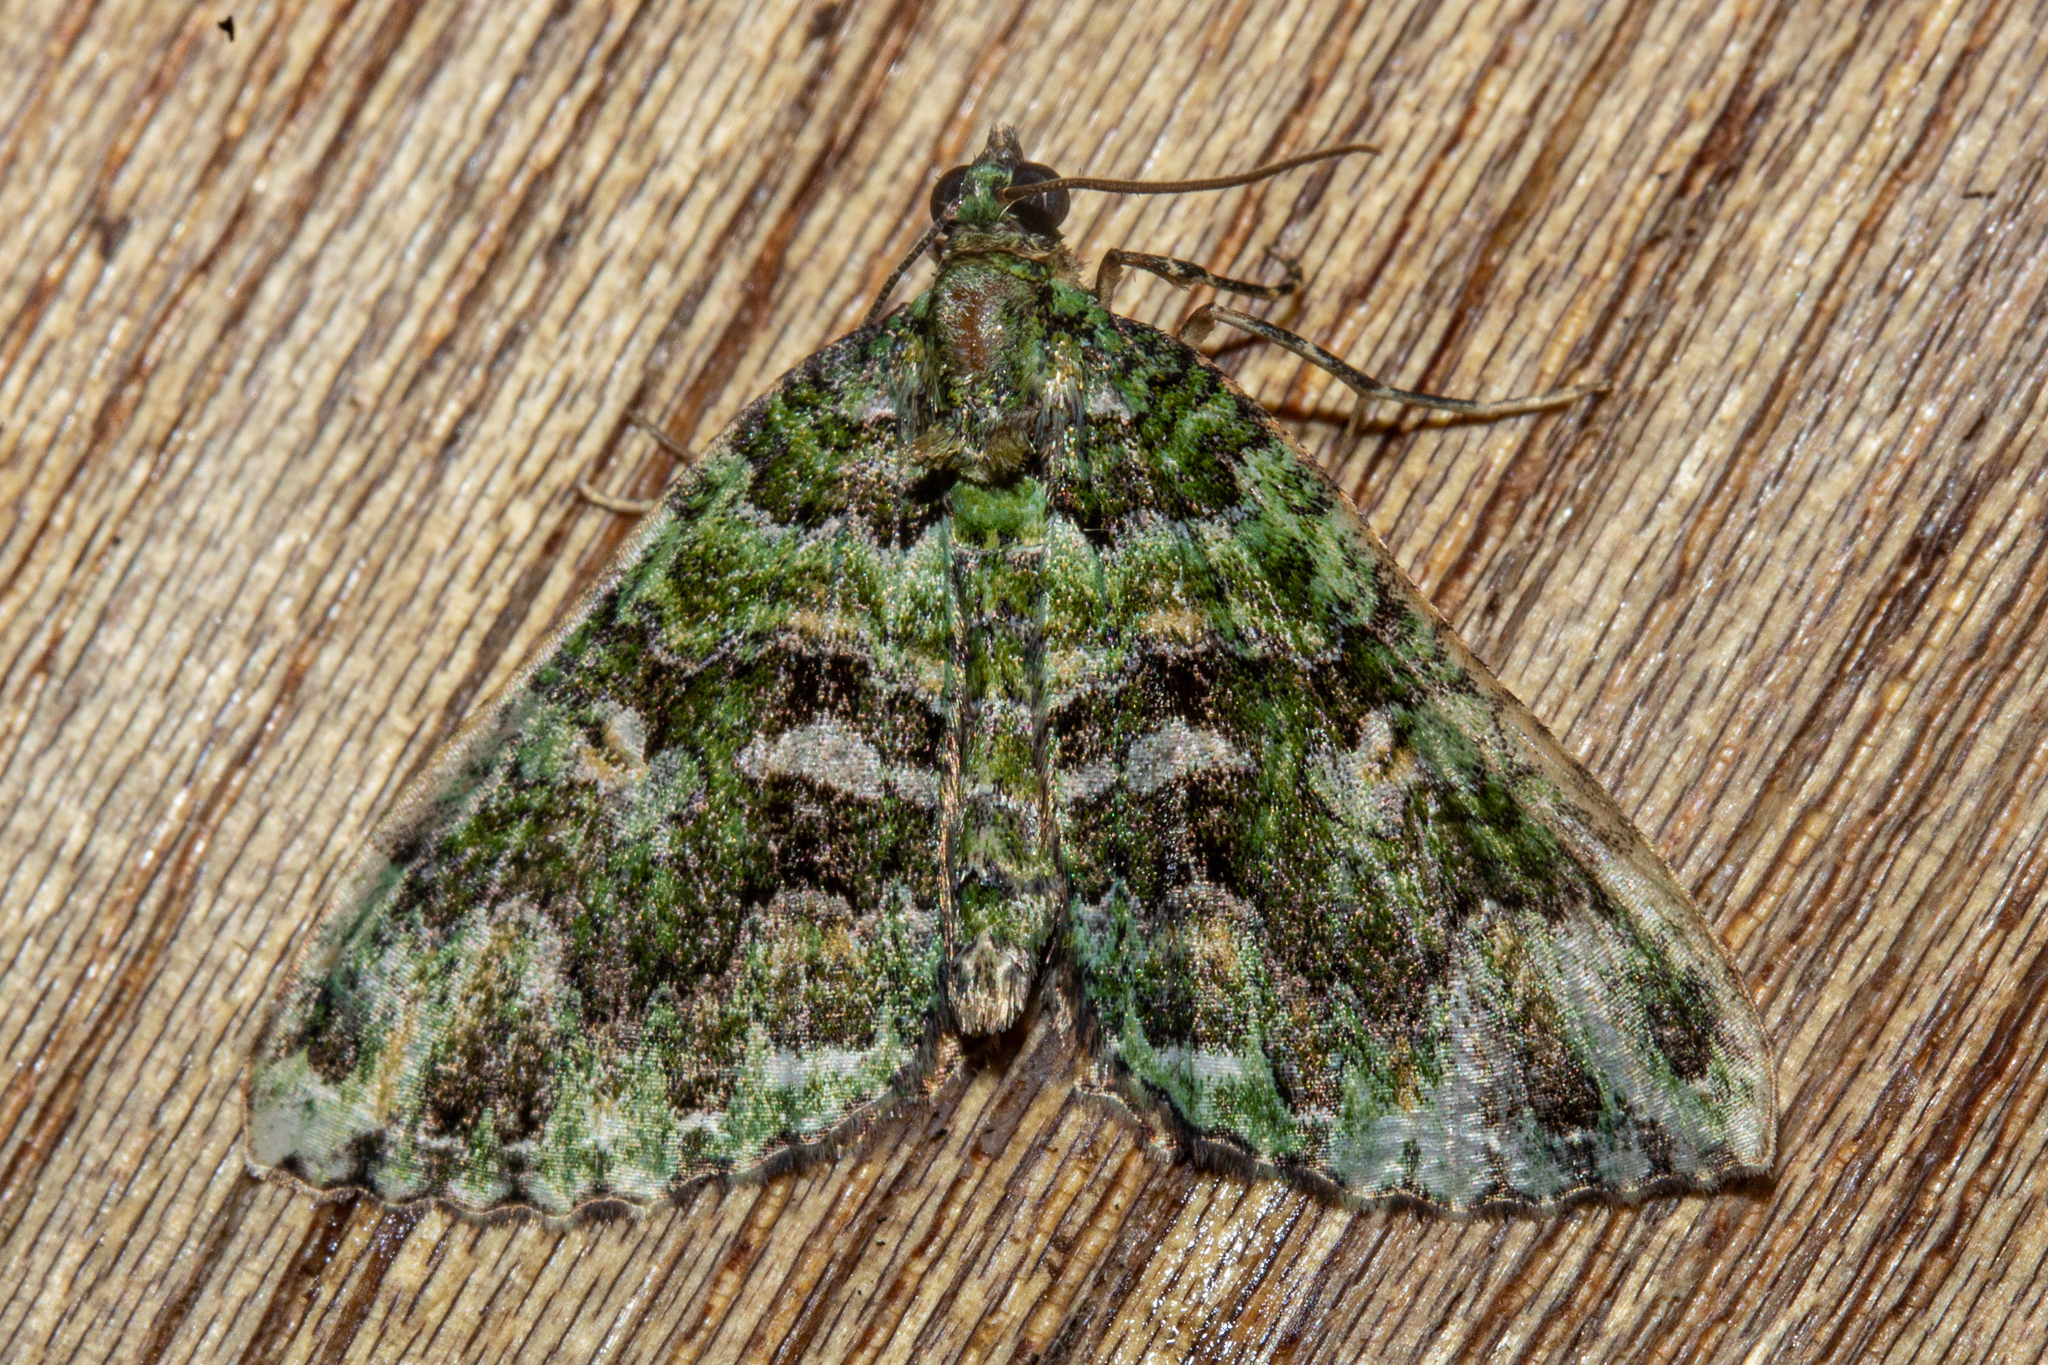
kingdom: Animalia
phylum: Arthropoda
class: Insecta
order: Lepidoptera
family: Geometridae
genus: Austrocidaria
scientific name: Austrocidaria similata
